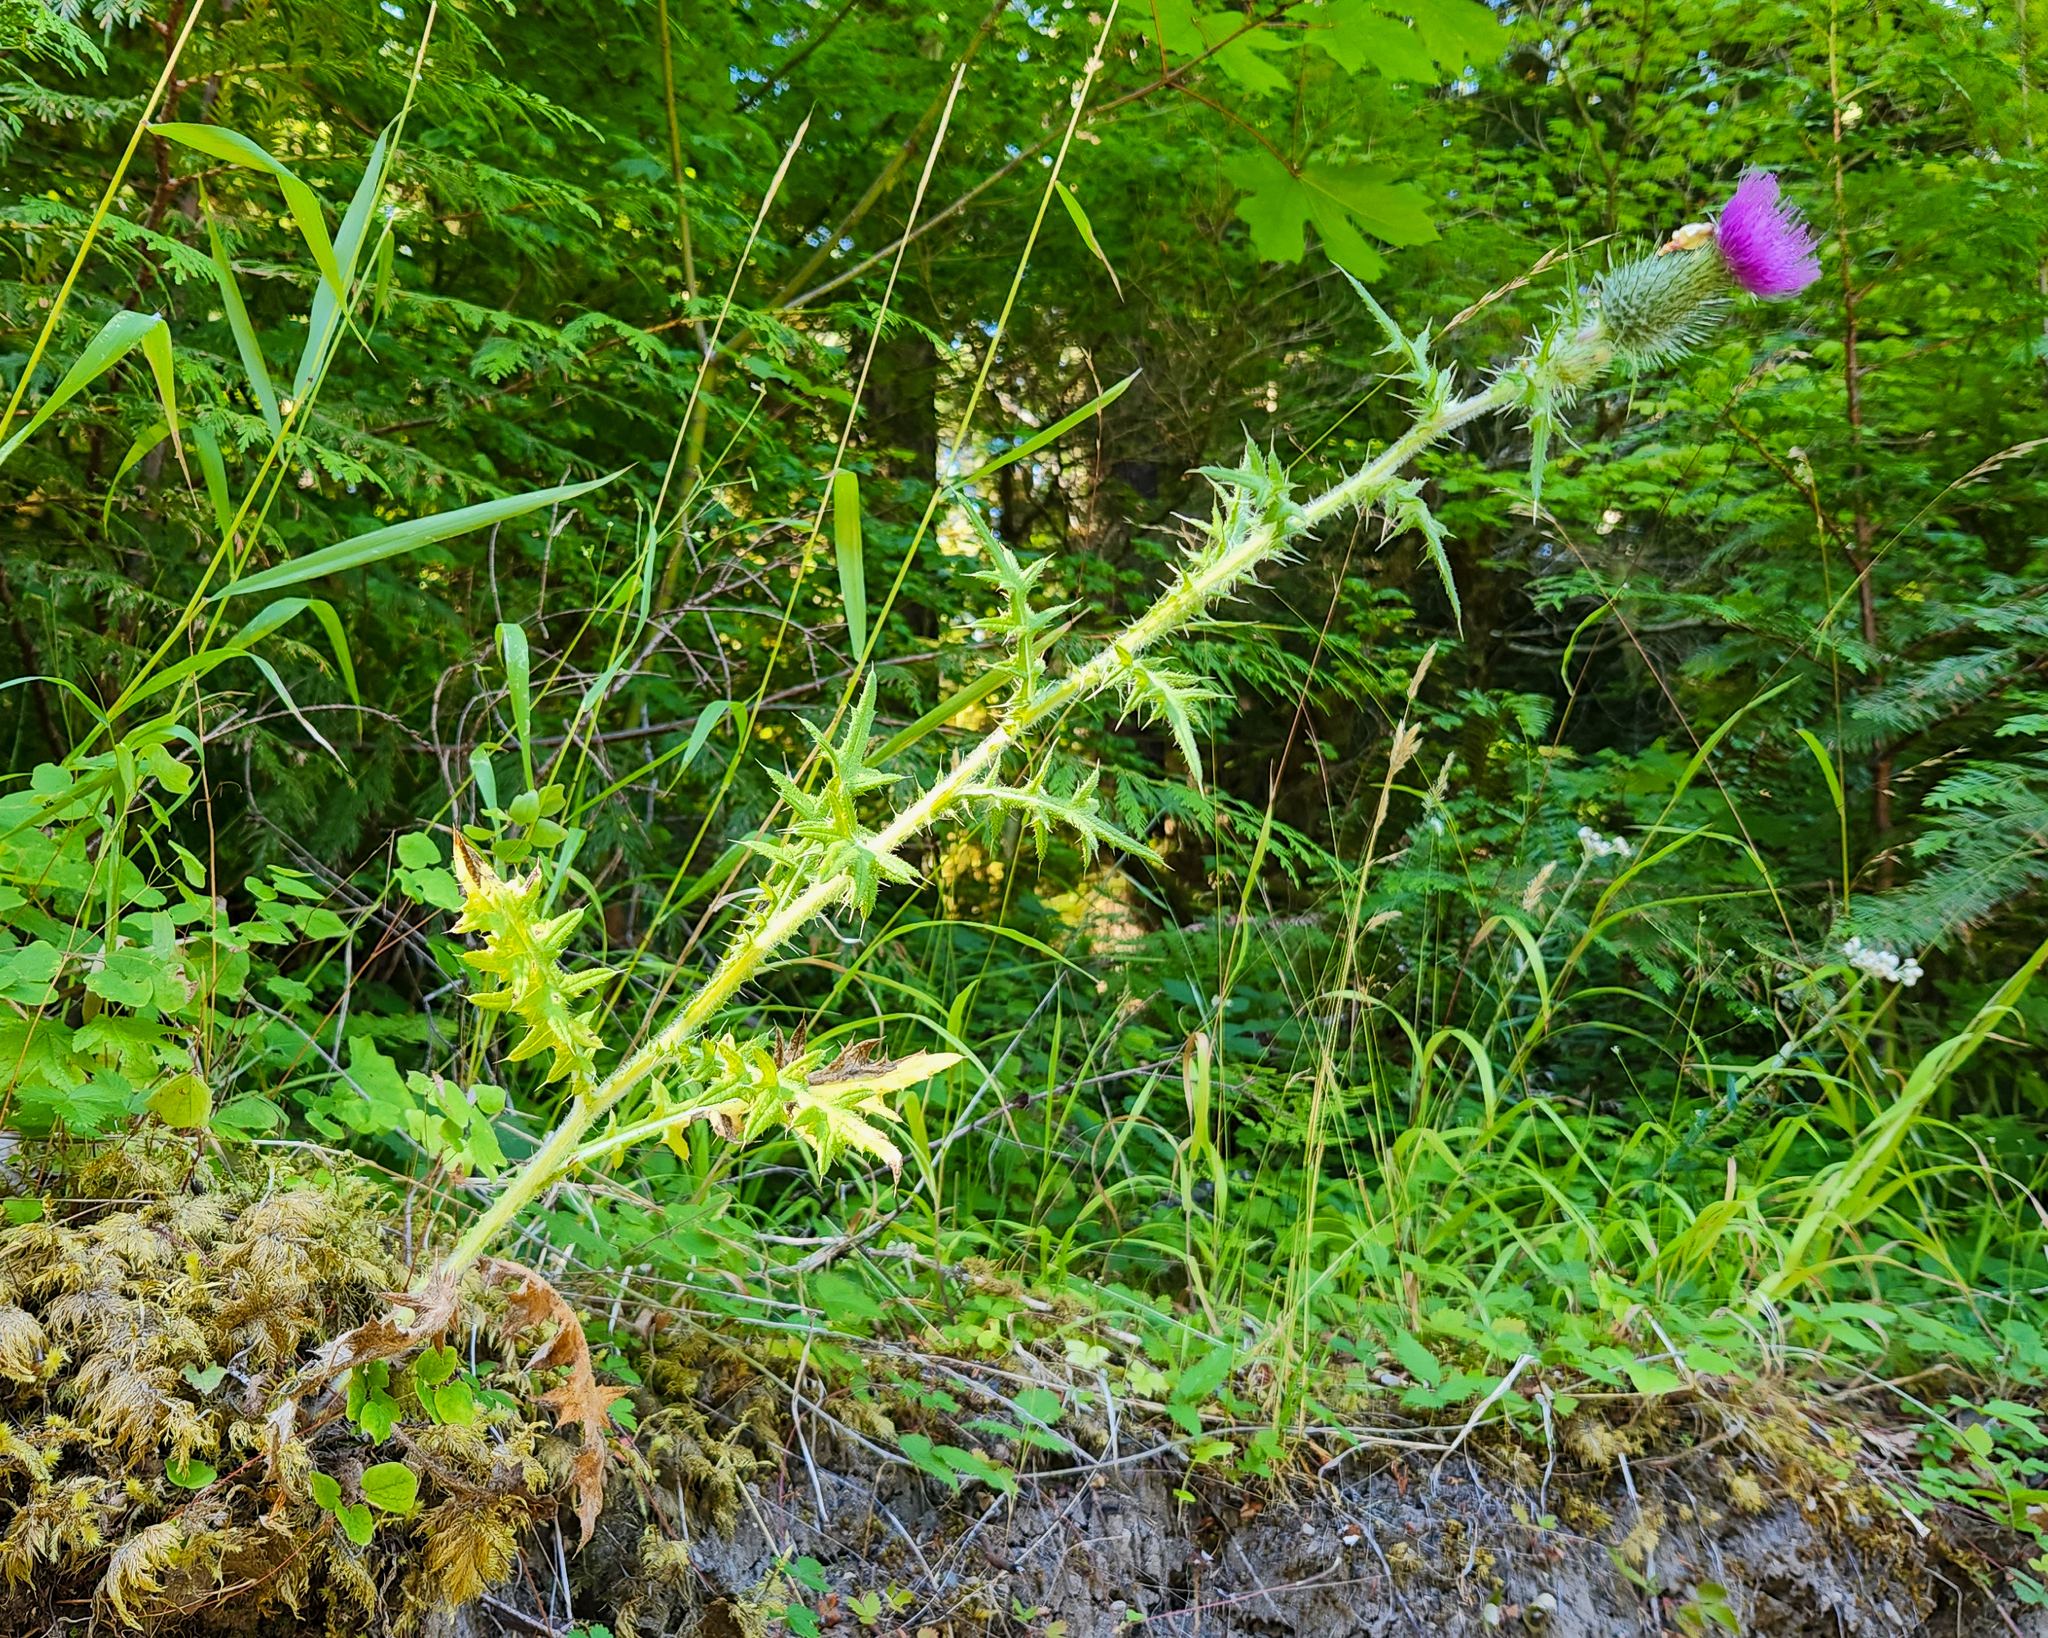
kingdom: Plantae
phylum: Tracheophyta
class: Magnoliopsida
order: Asterales
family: Asteraceae
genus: Cirsium
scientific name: Cirsium vulgare
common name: Bull thistle
